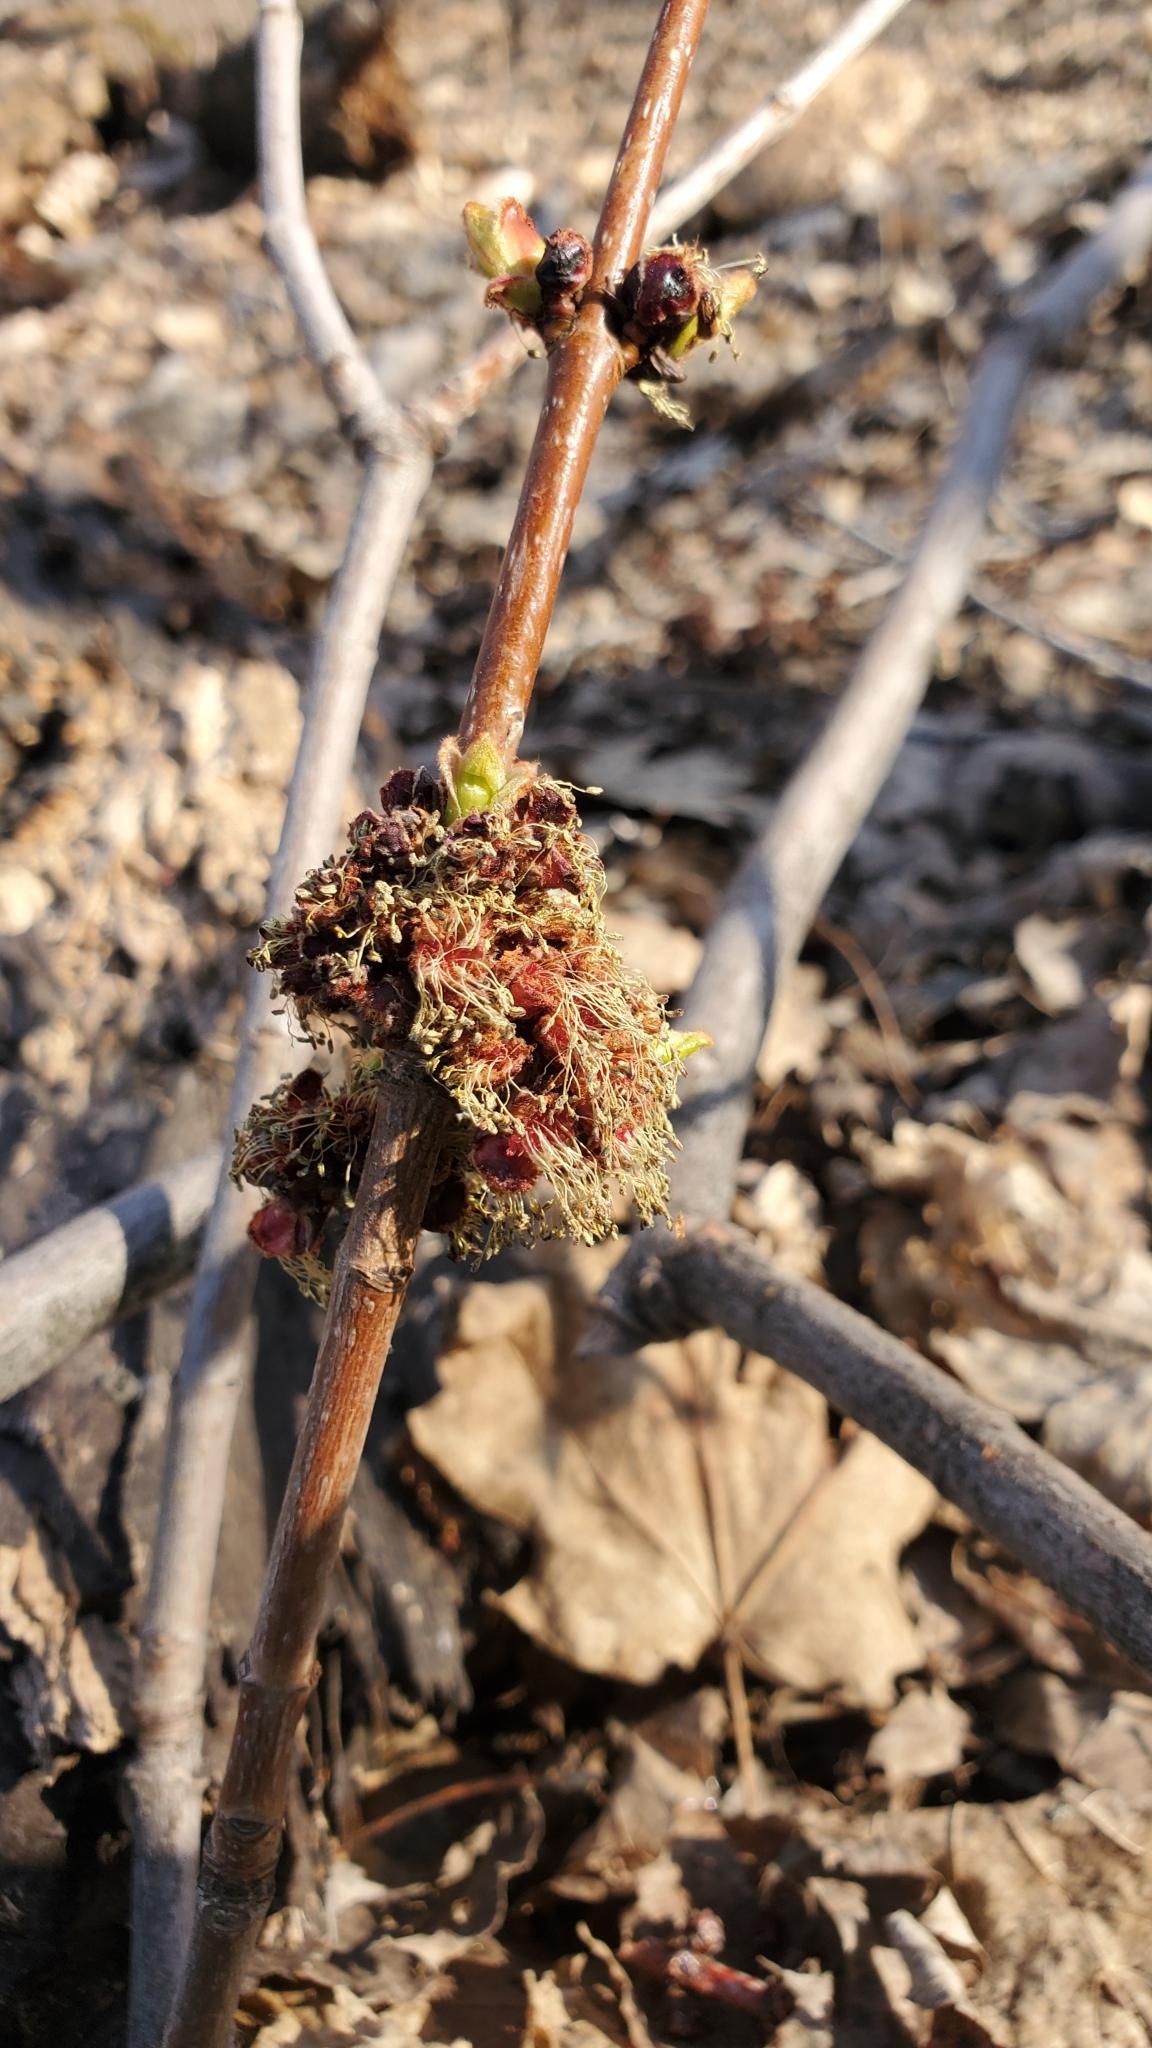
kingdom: Plantae
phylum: Tracheophyta
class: Magnoliopsida
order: Sapindales
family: Sapindaceae
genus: Acer
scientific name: Acer saccharinum
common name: Silver maple
